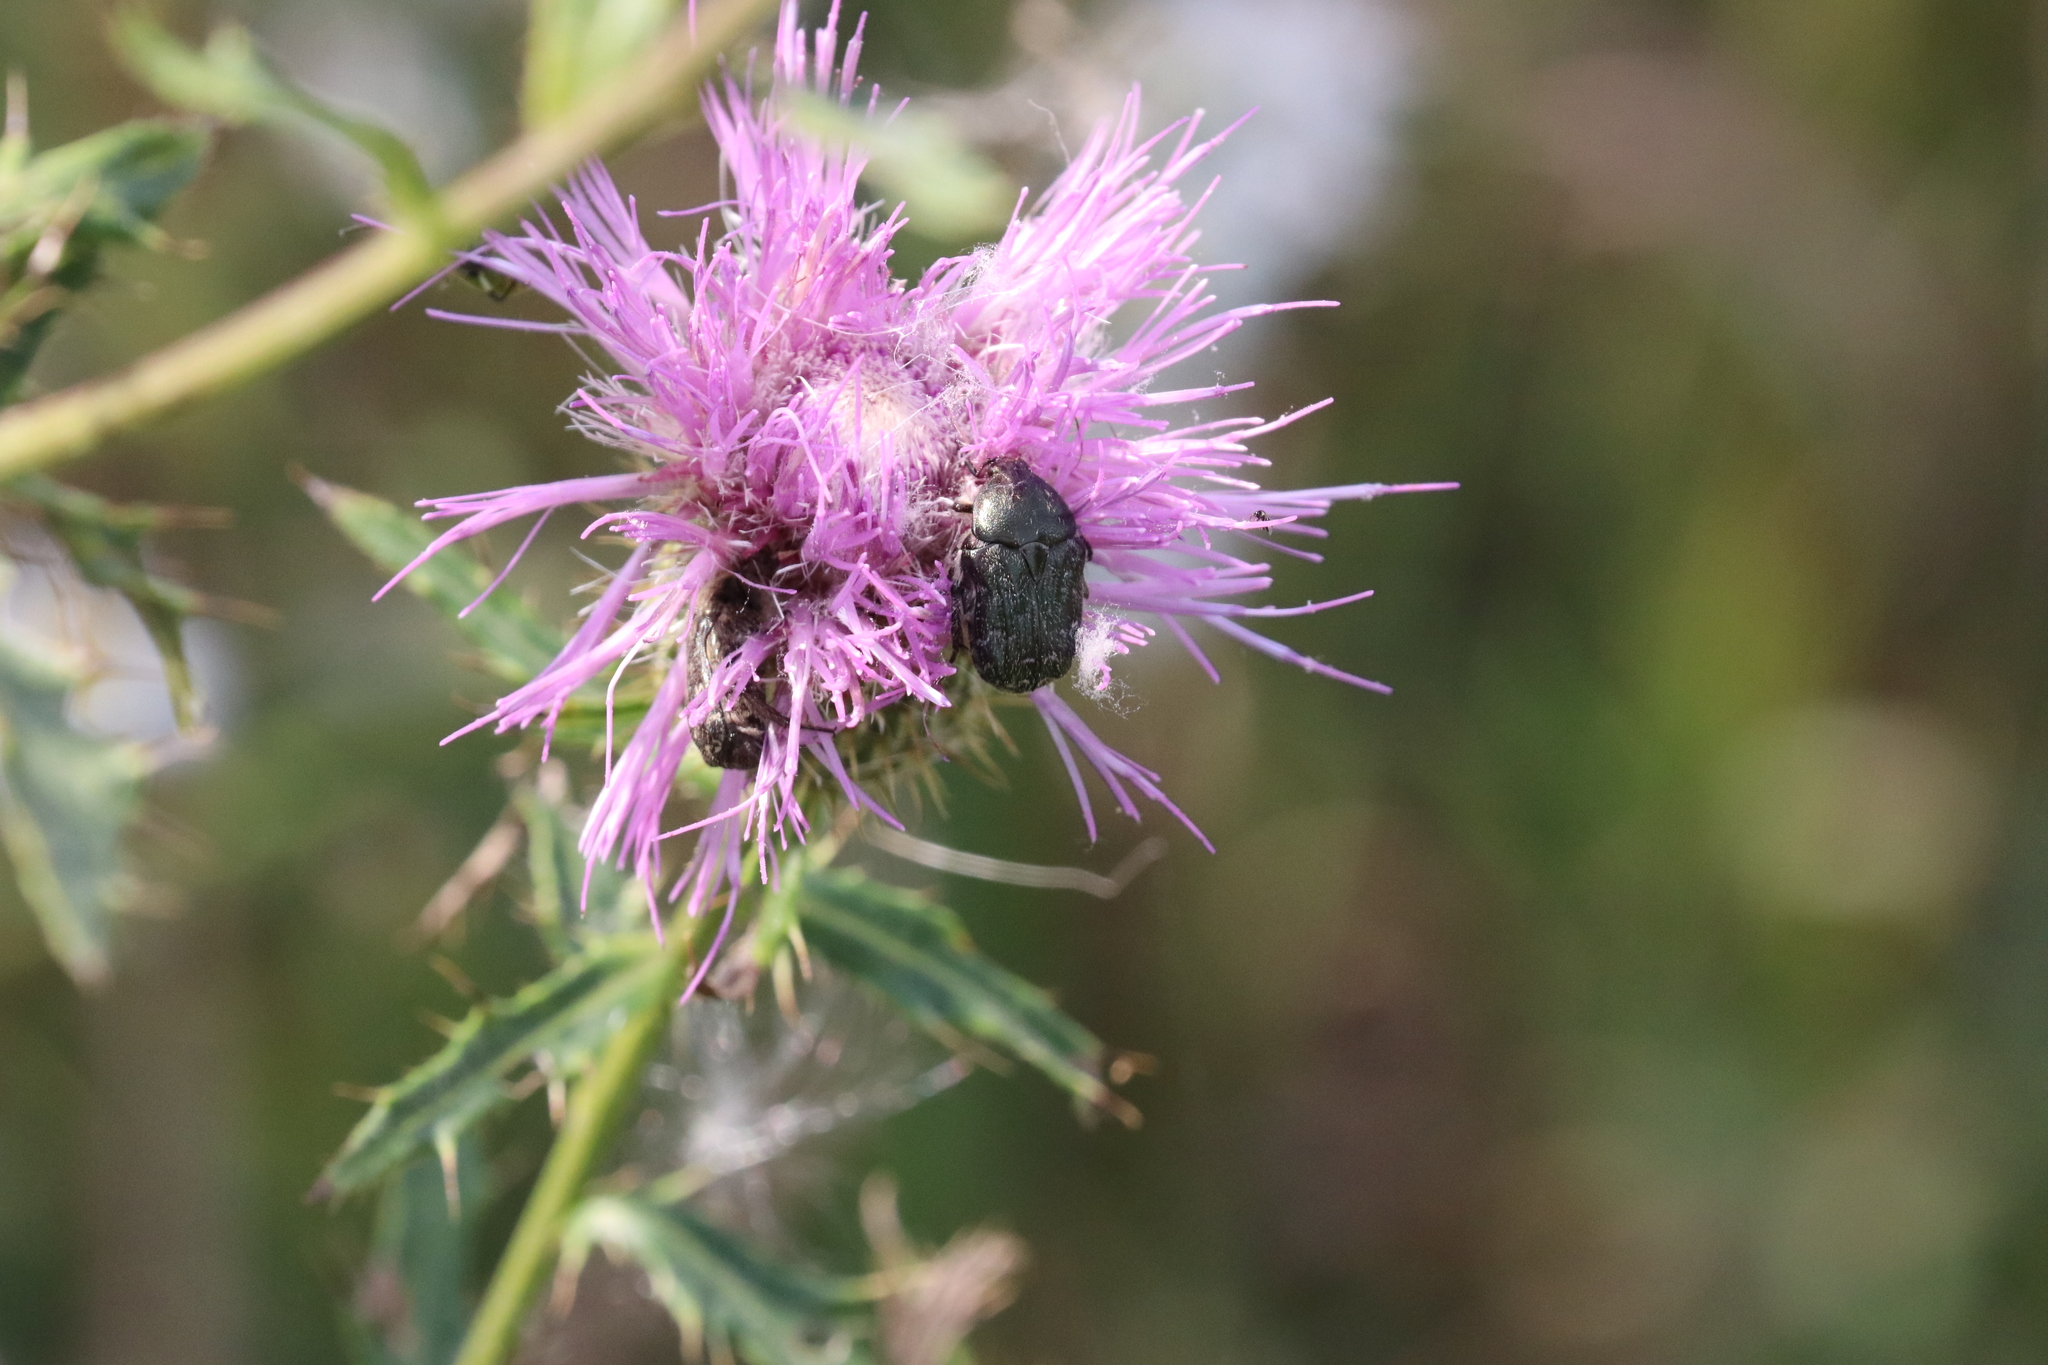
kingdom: Animalia
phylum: Arthropoda
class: Insecta
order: Coleoptera
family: Scarabaeidae
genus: Euphoria
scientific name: Euphoria sepulcralis
